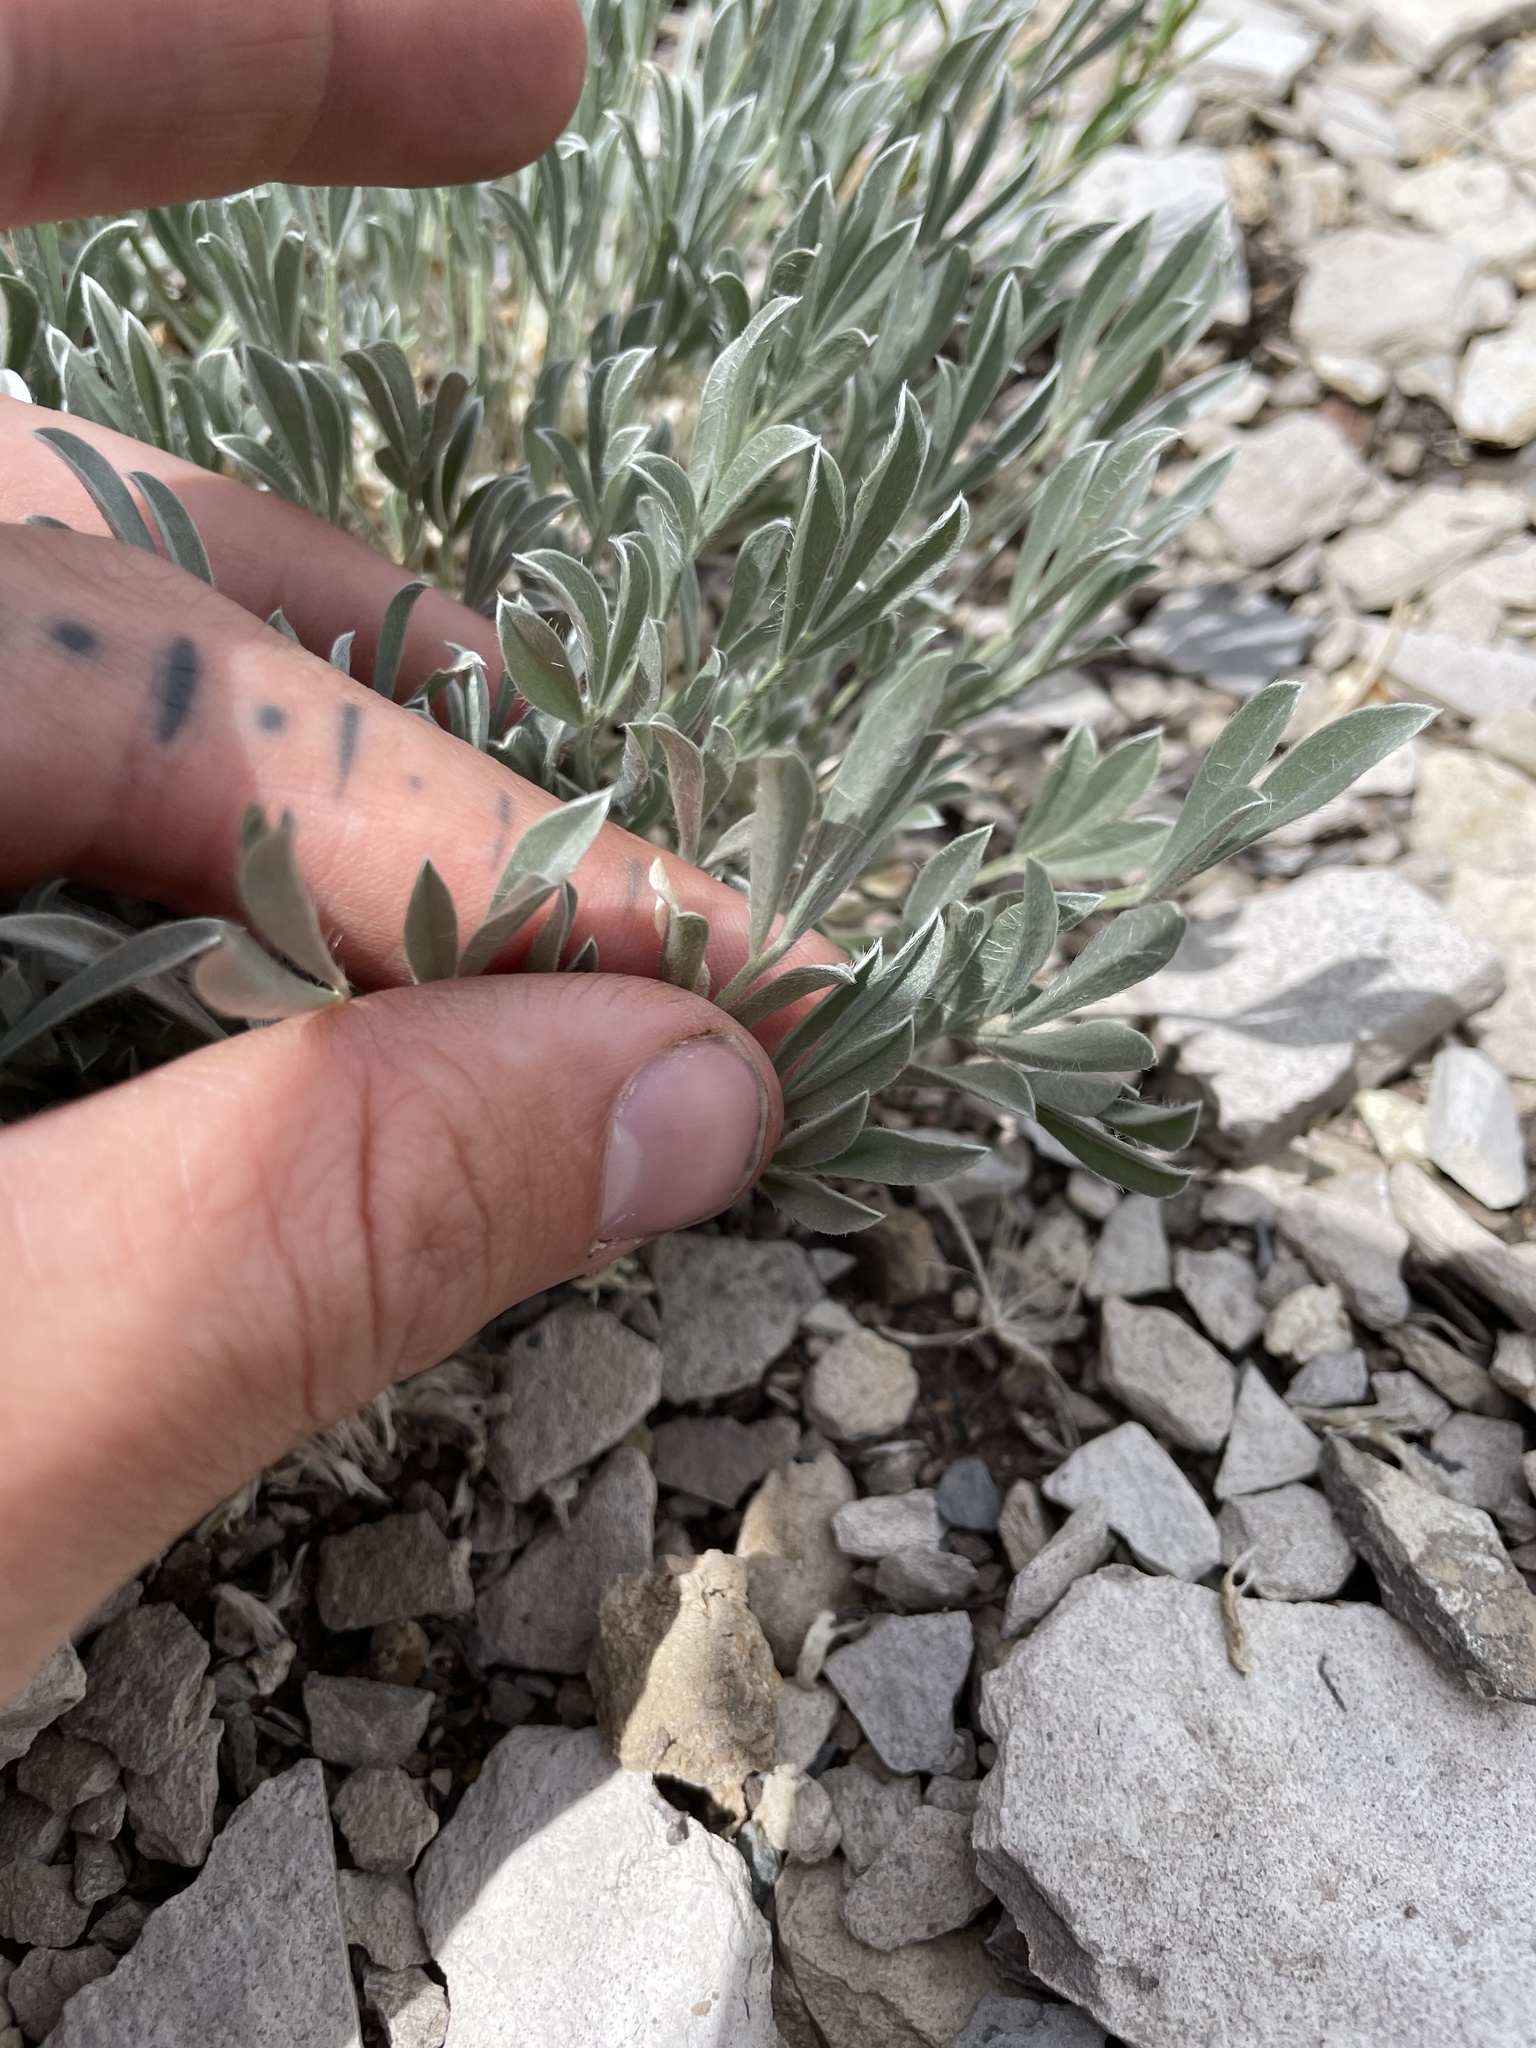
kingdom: Plantae
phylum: Tracheophyta
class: Magnoliopsida
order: Fabales
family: Fabaceae
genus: Astragalus
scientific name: Astragalus tridactylicus
